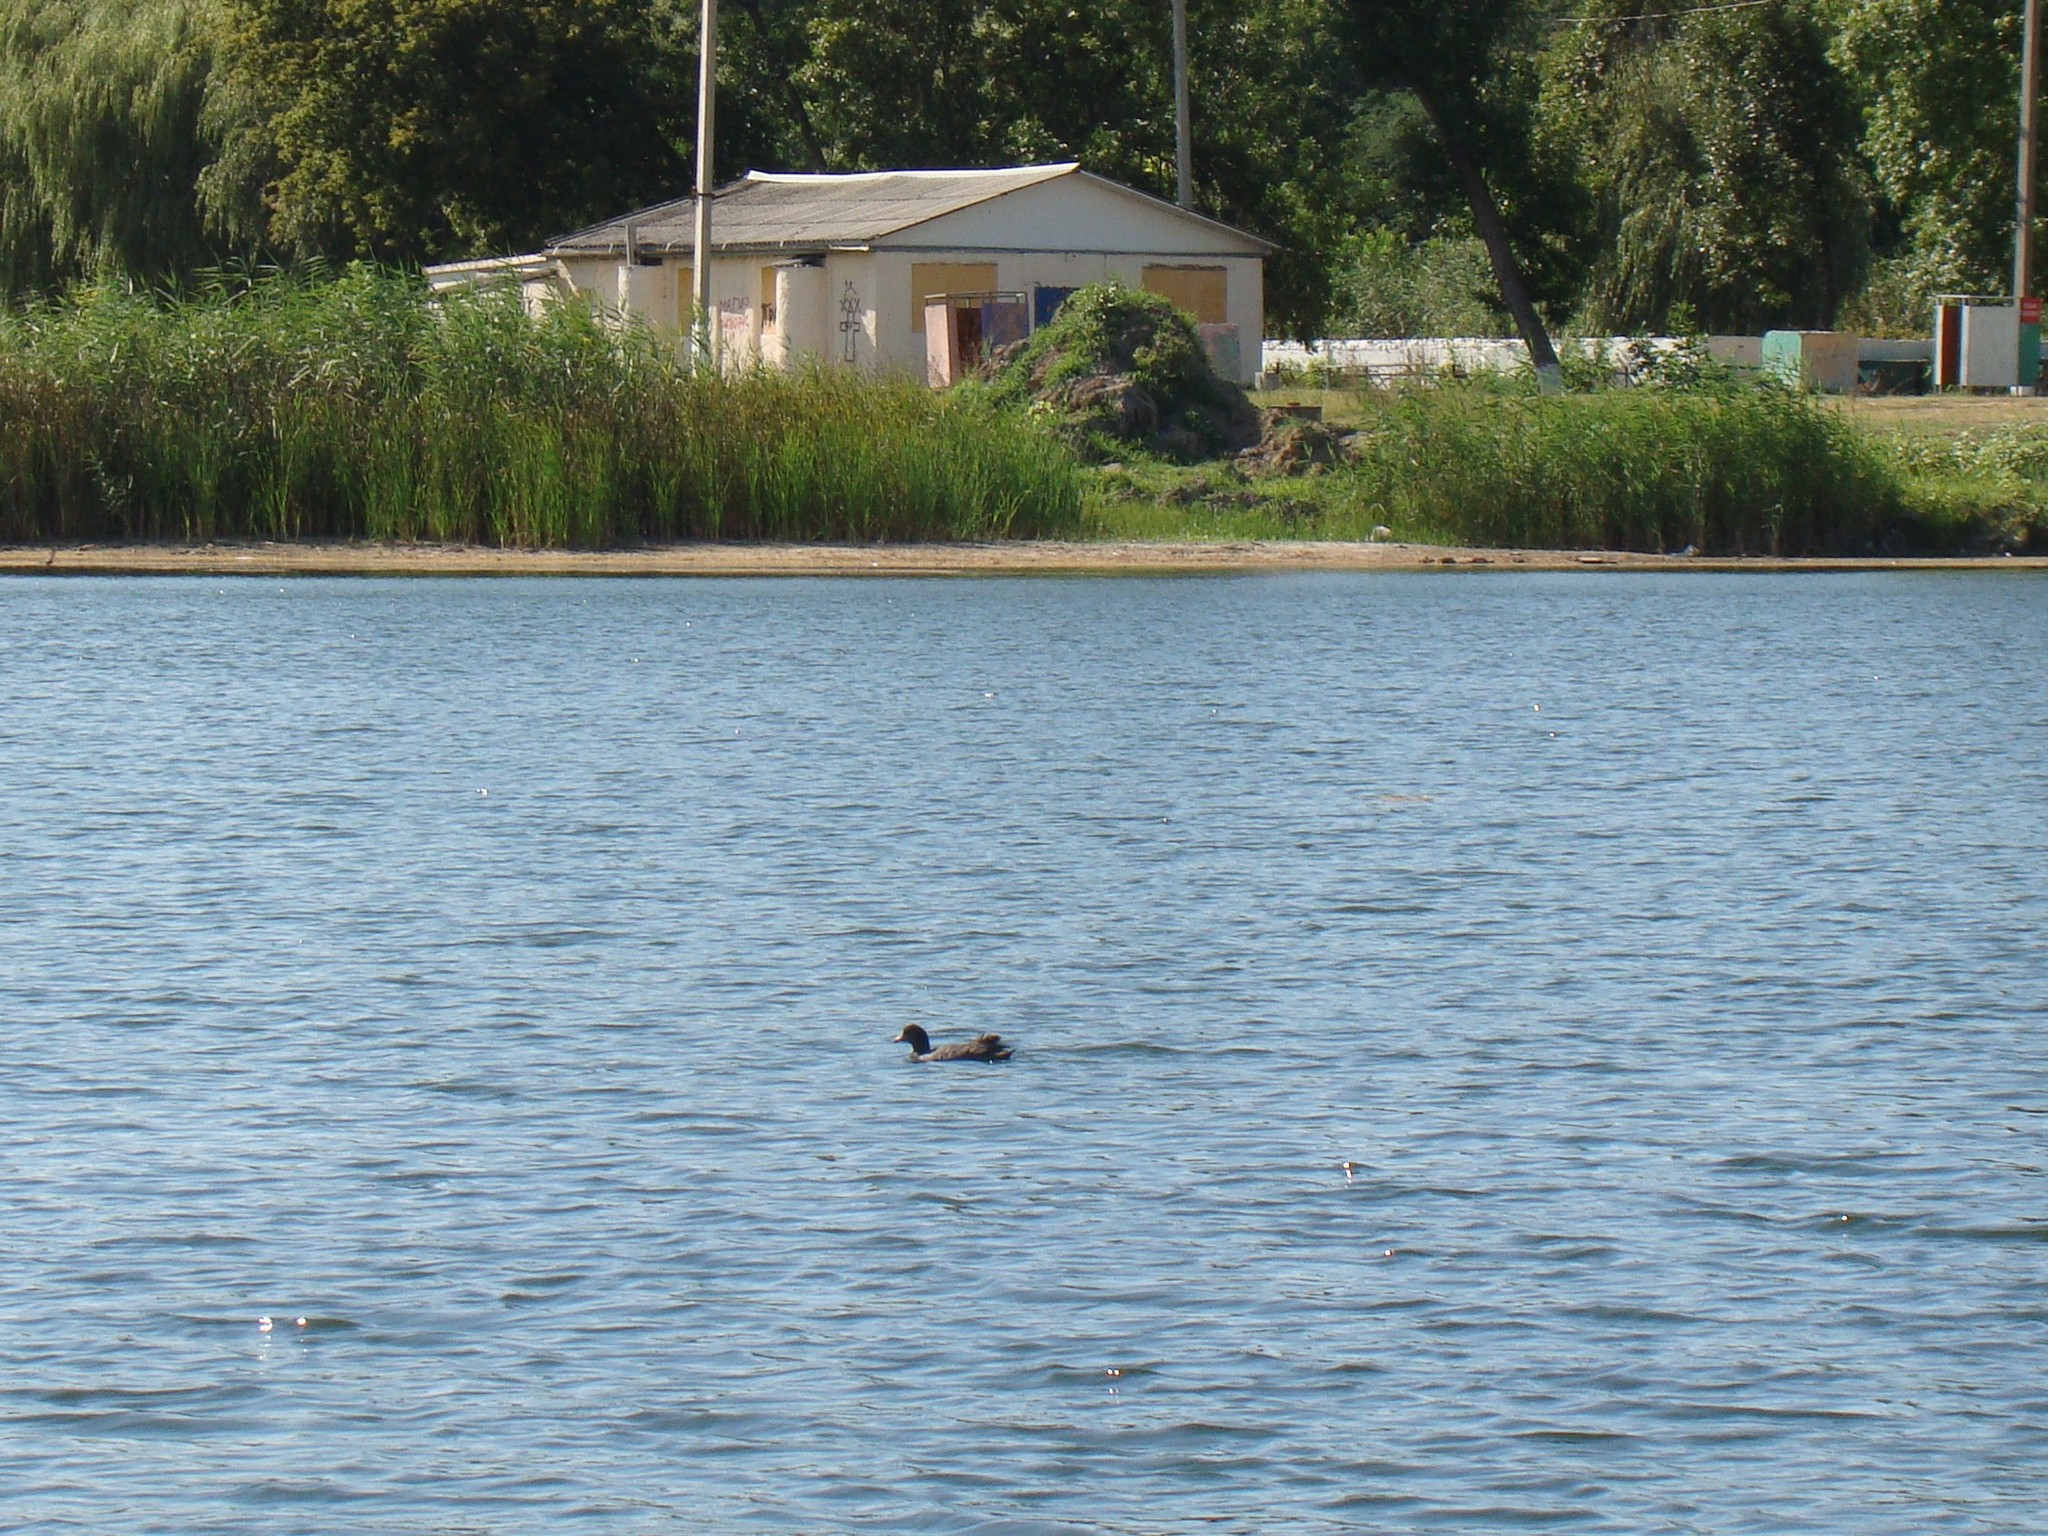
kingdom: Animalia
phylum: Chordata
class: Aves
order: Gruiformes
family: Rallidae
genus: Fulica
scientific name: Fulica atra
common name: Eurasian coot
